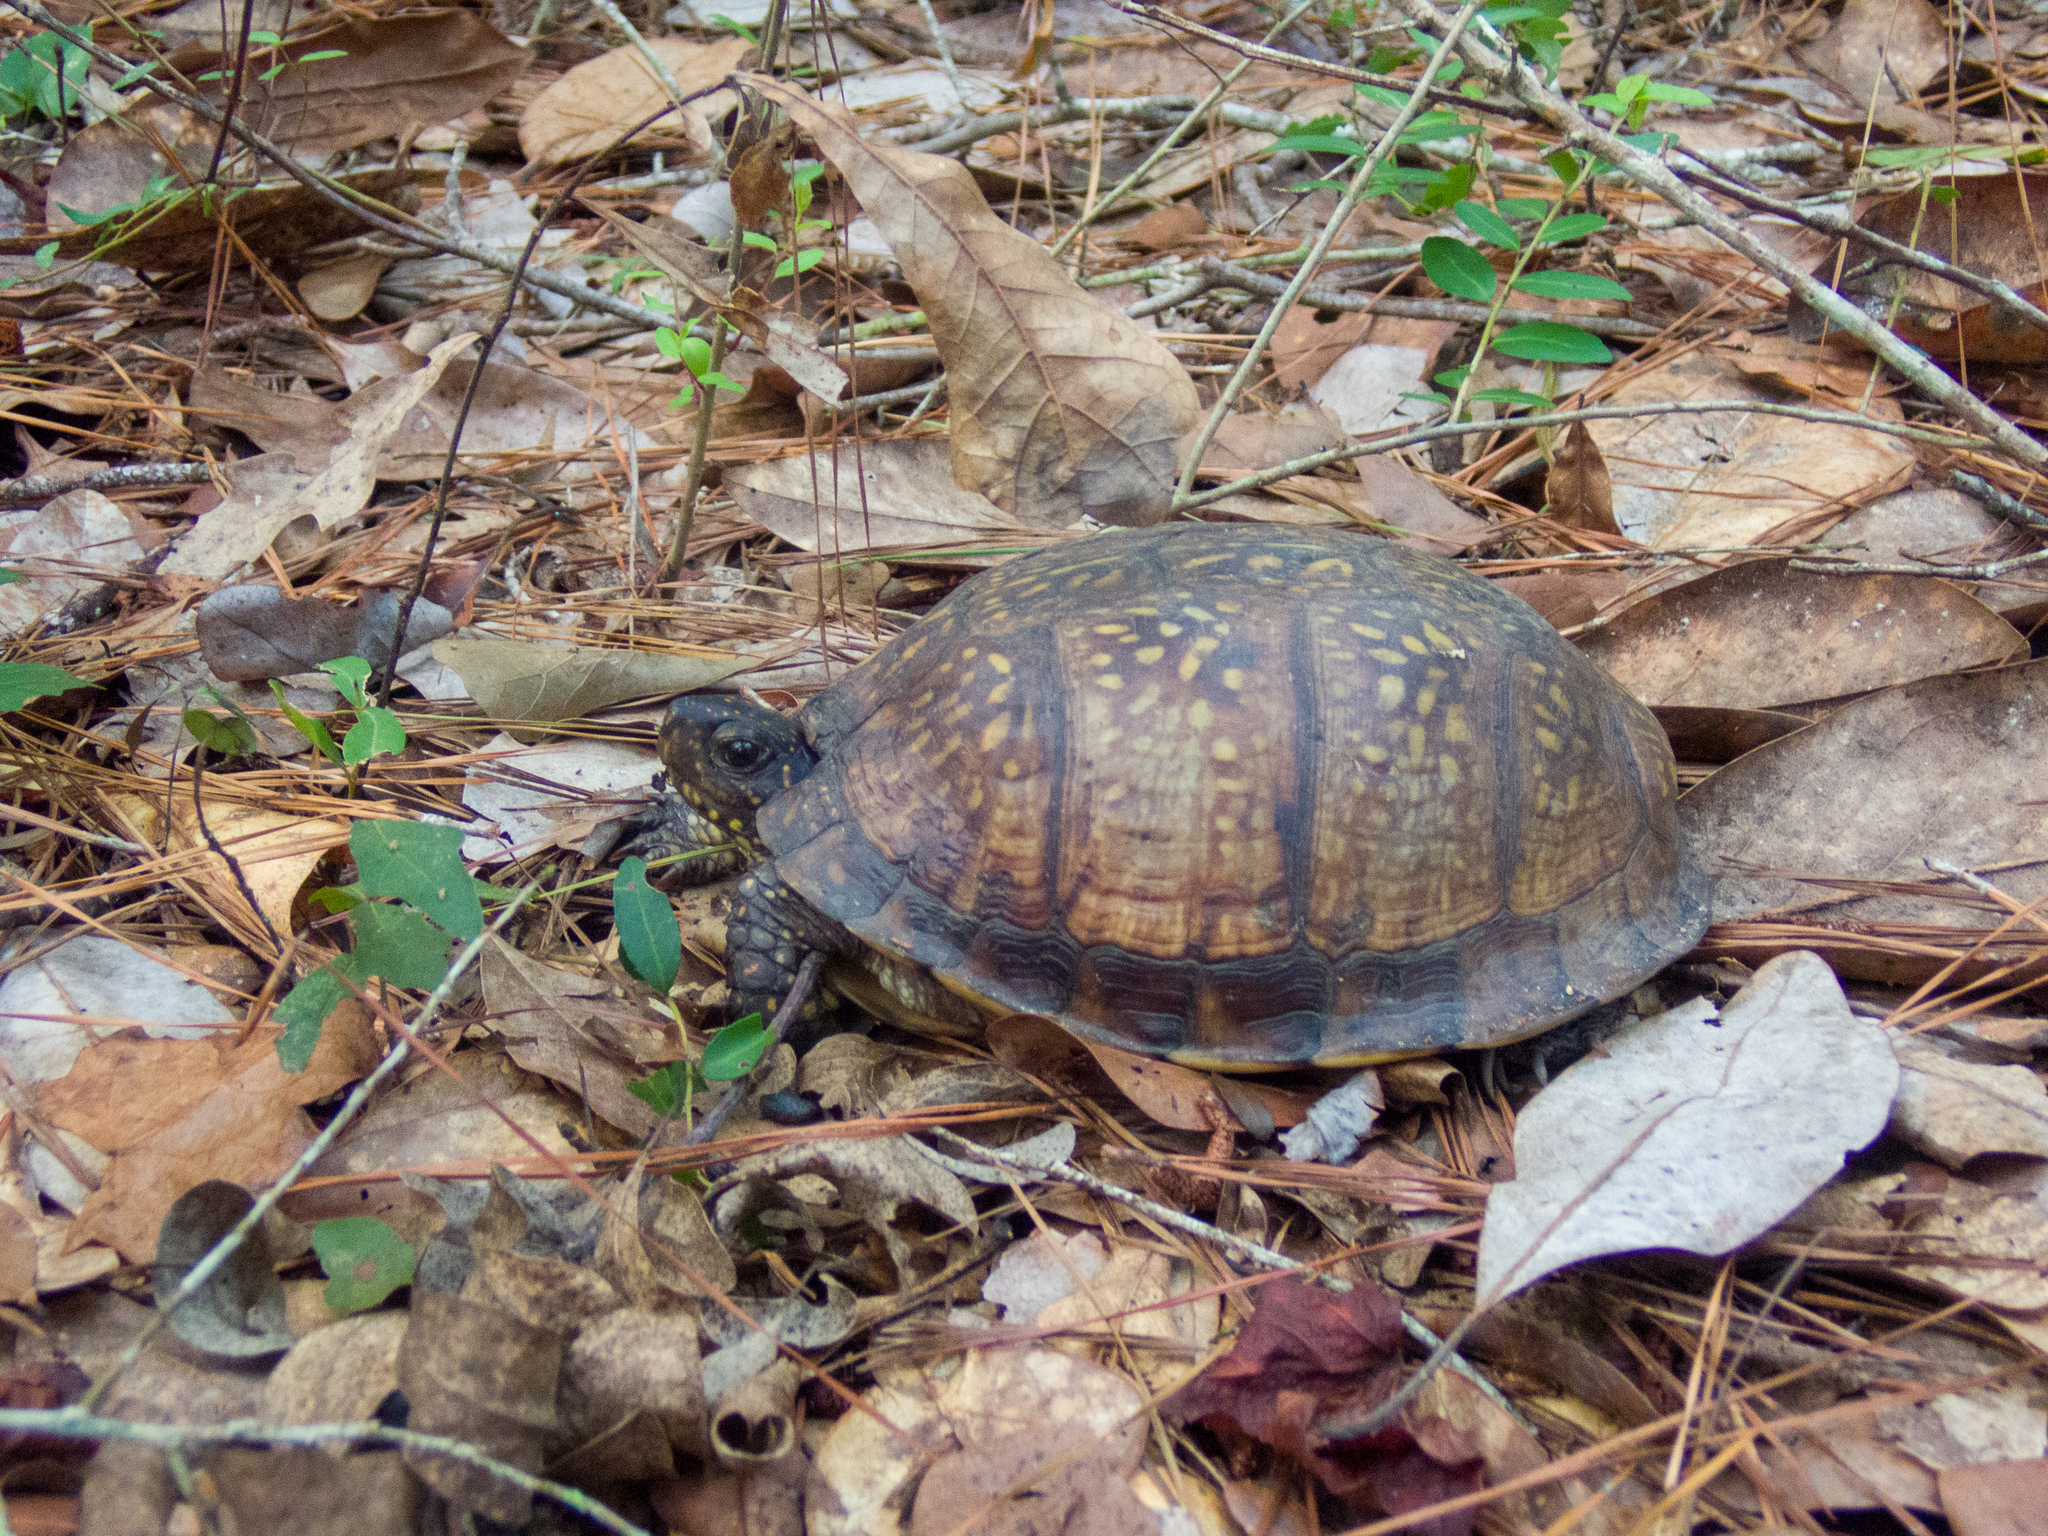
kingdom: Animalia
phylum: Chordata
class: Testudines
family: Emydidae
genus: Terrapene
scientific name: Terrapene carolina
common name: Common box turtle
